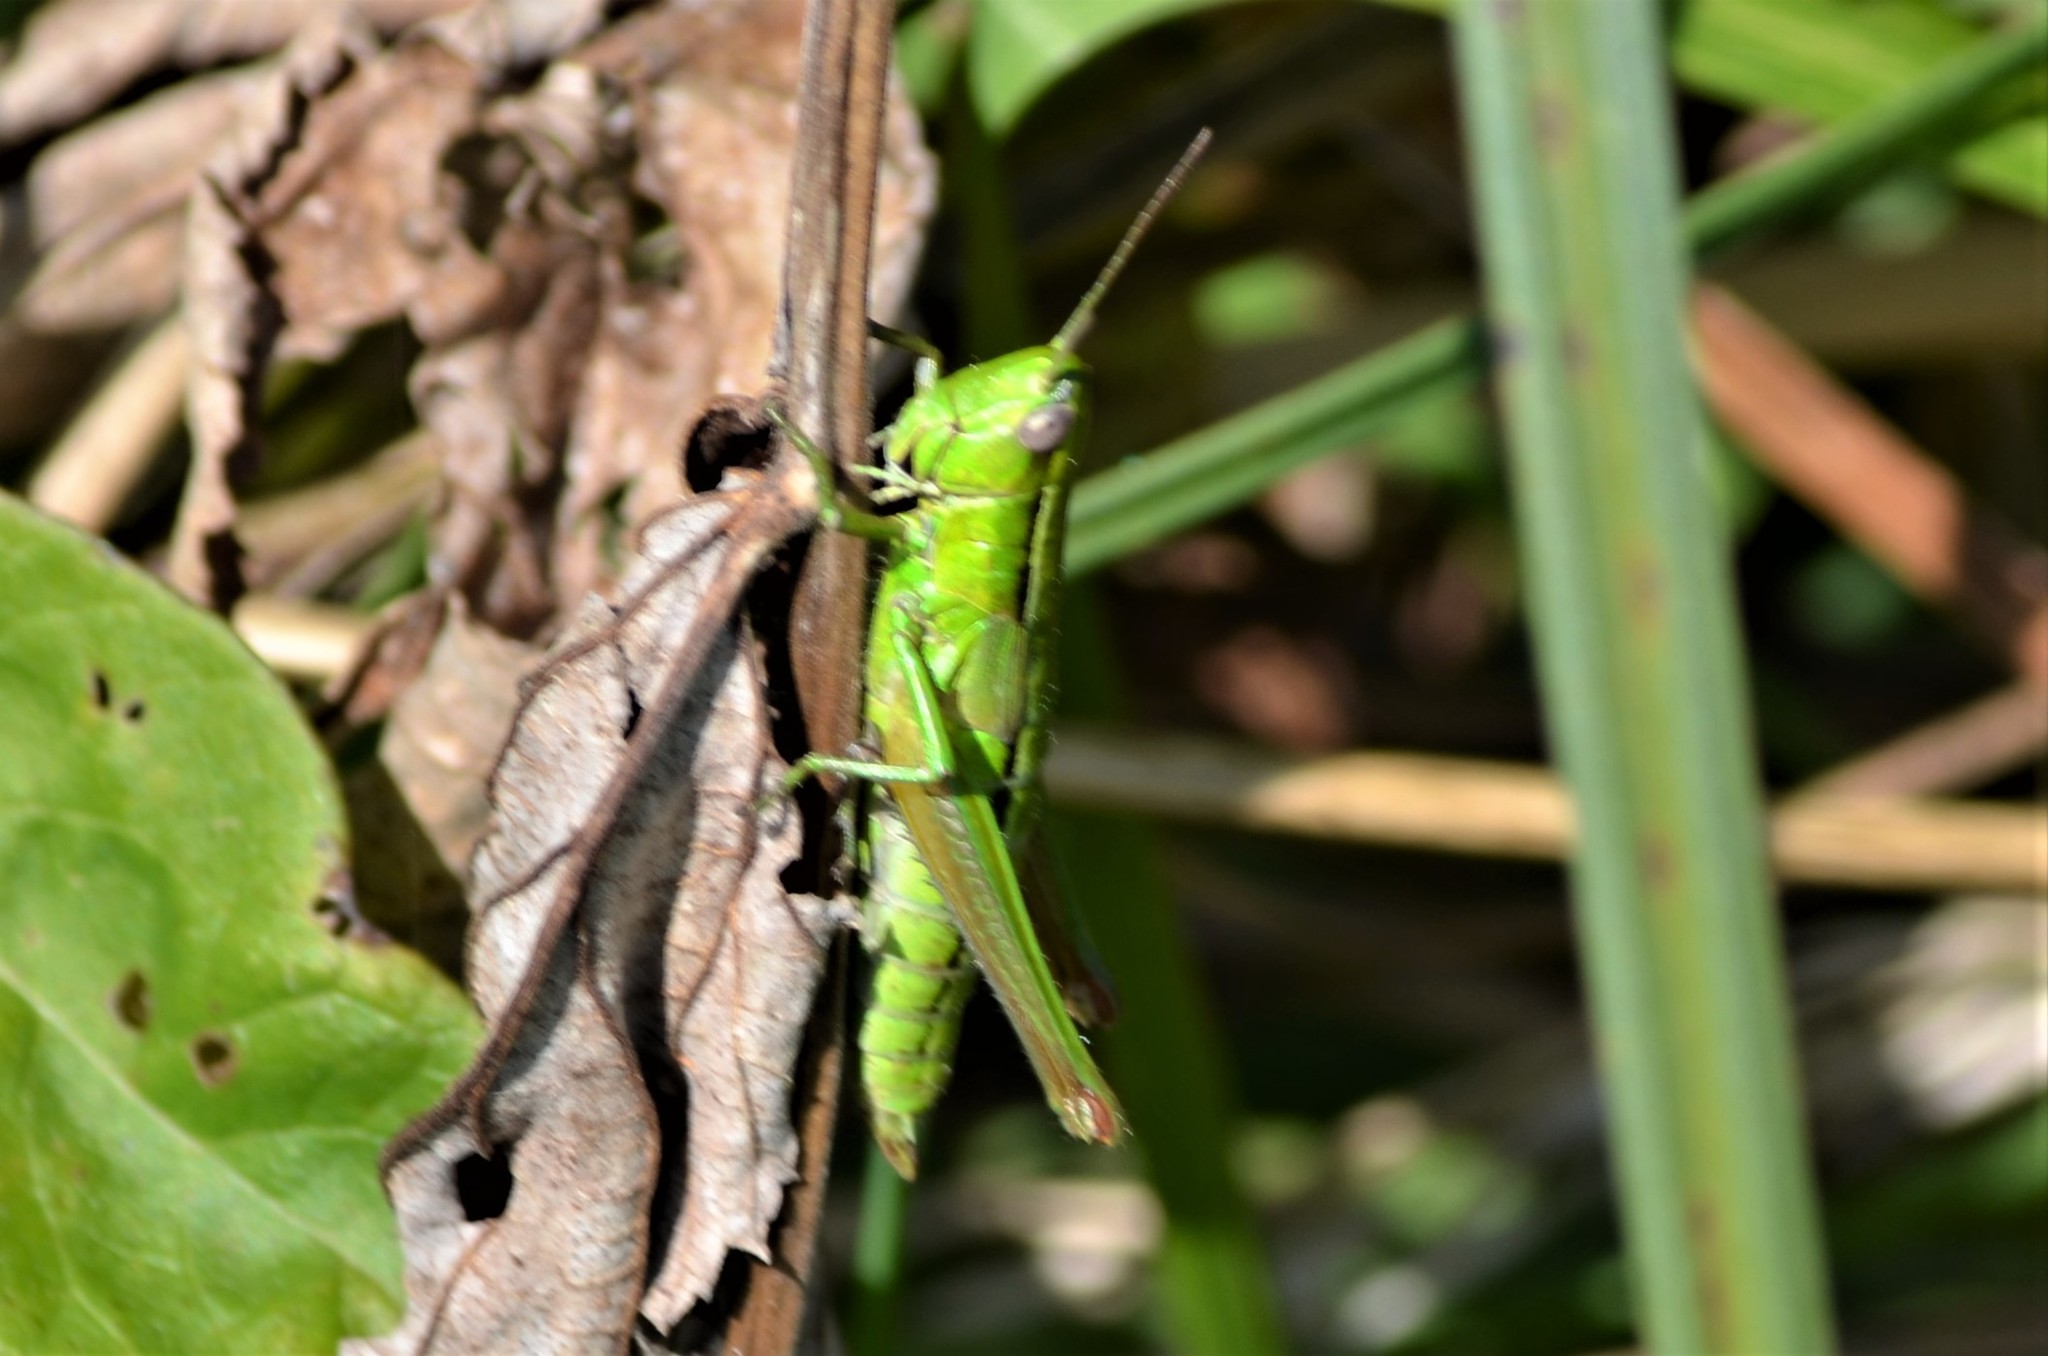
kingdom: Animalia
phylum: Arthropoda
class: Insecta
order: Orthoptera
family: Acrididae
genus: Euthystira
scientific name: Euthystira brachyptera
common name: Small gold grasshopper
